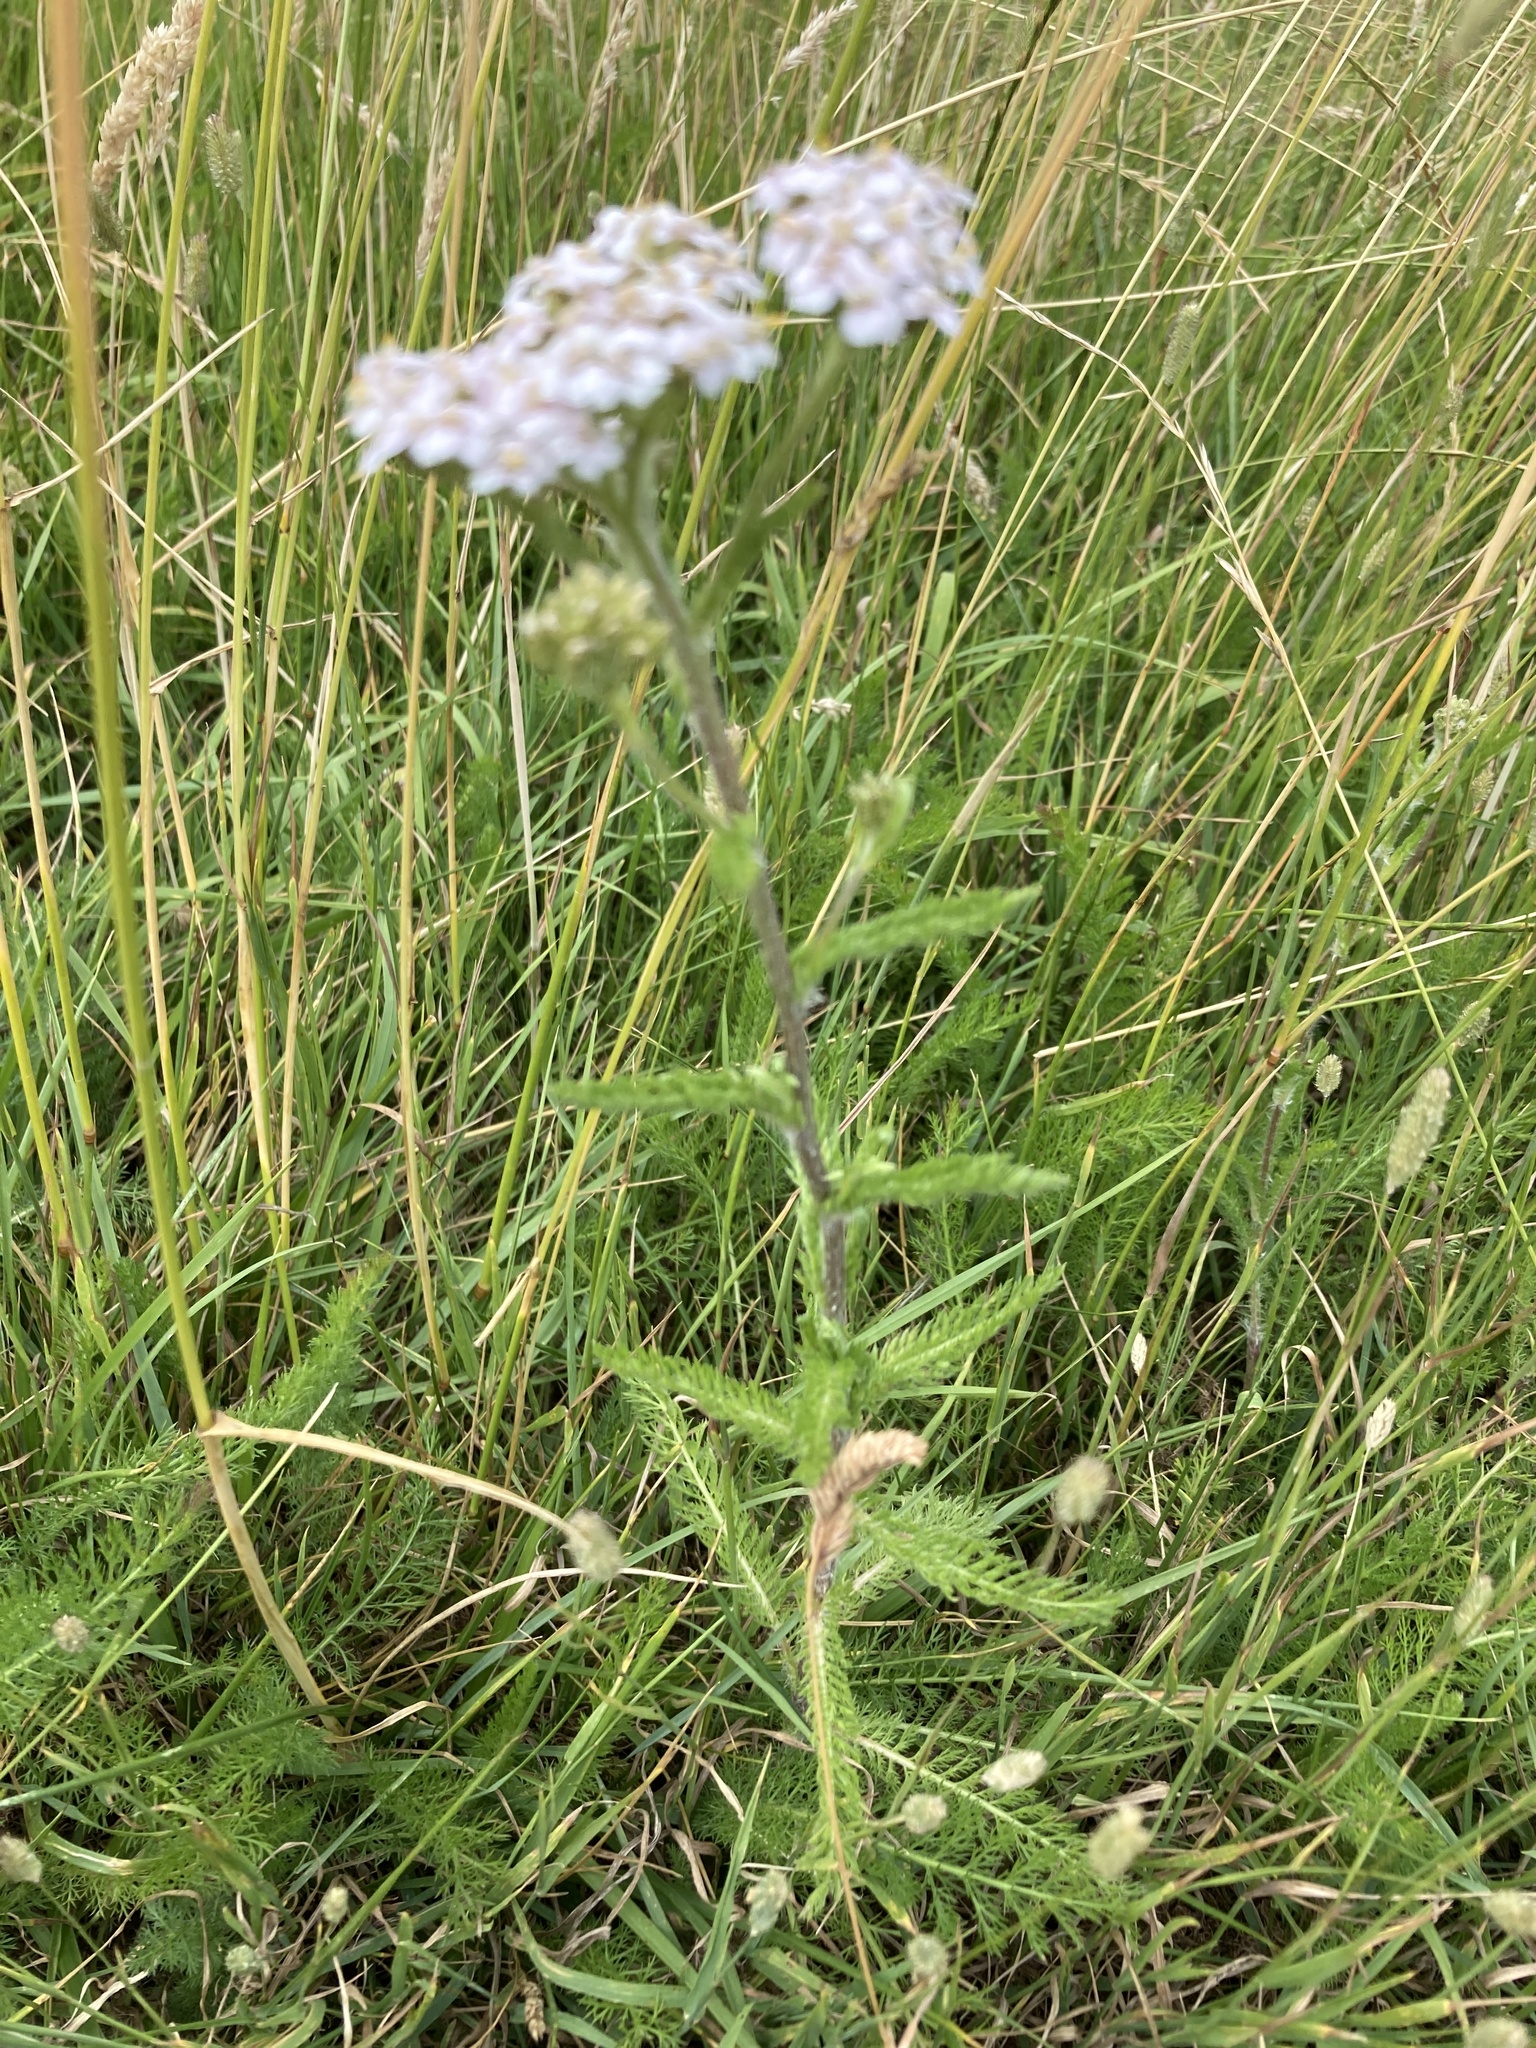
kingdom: Plantae
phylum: Tracheophyta
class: Magnoliopsida
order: Asterales
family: Asteraceae
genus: Achillea
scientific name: Achillea millefolium
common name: Yarrow
